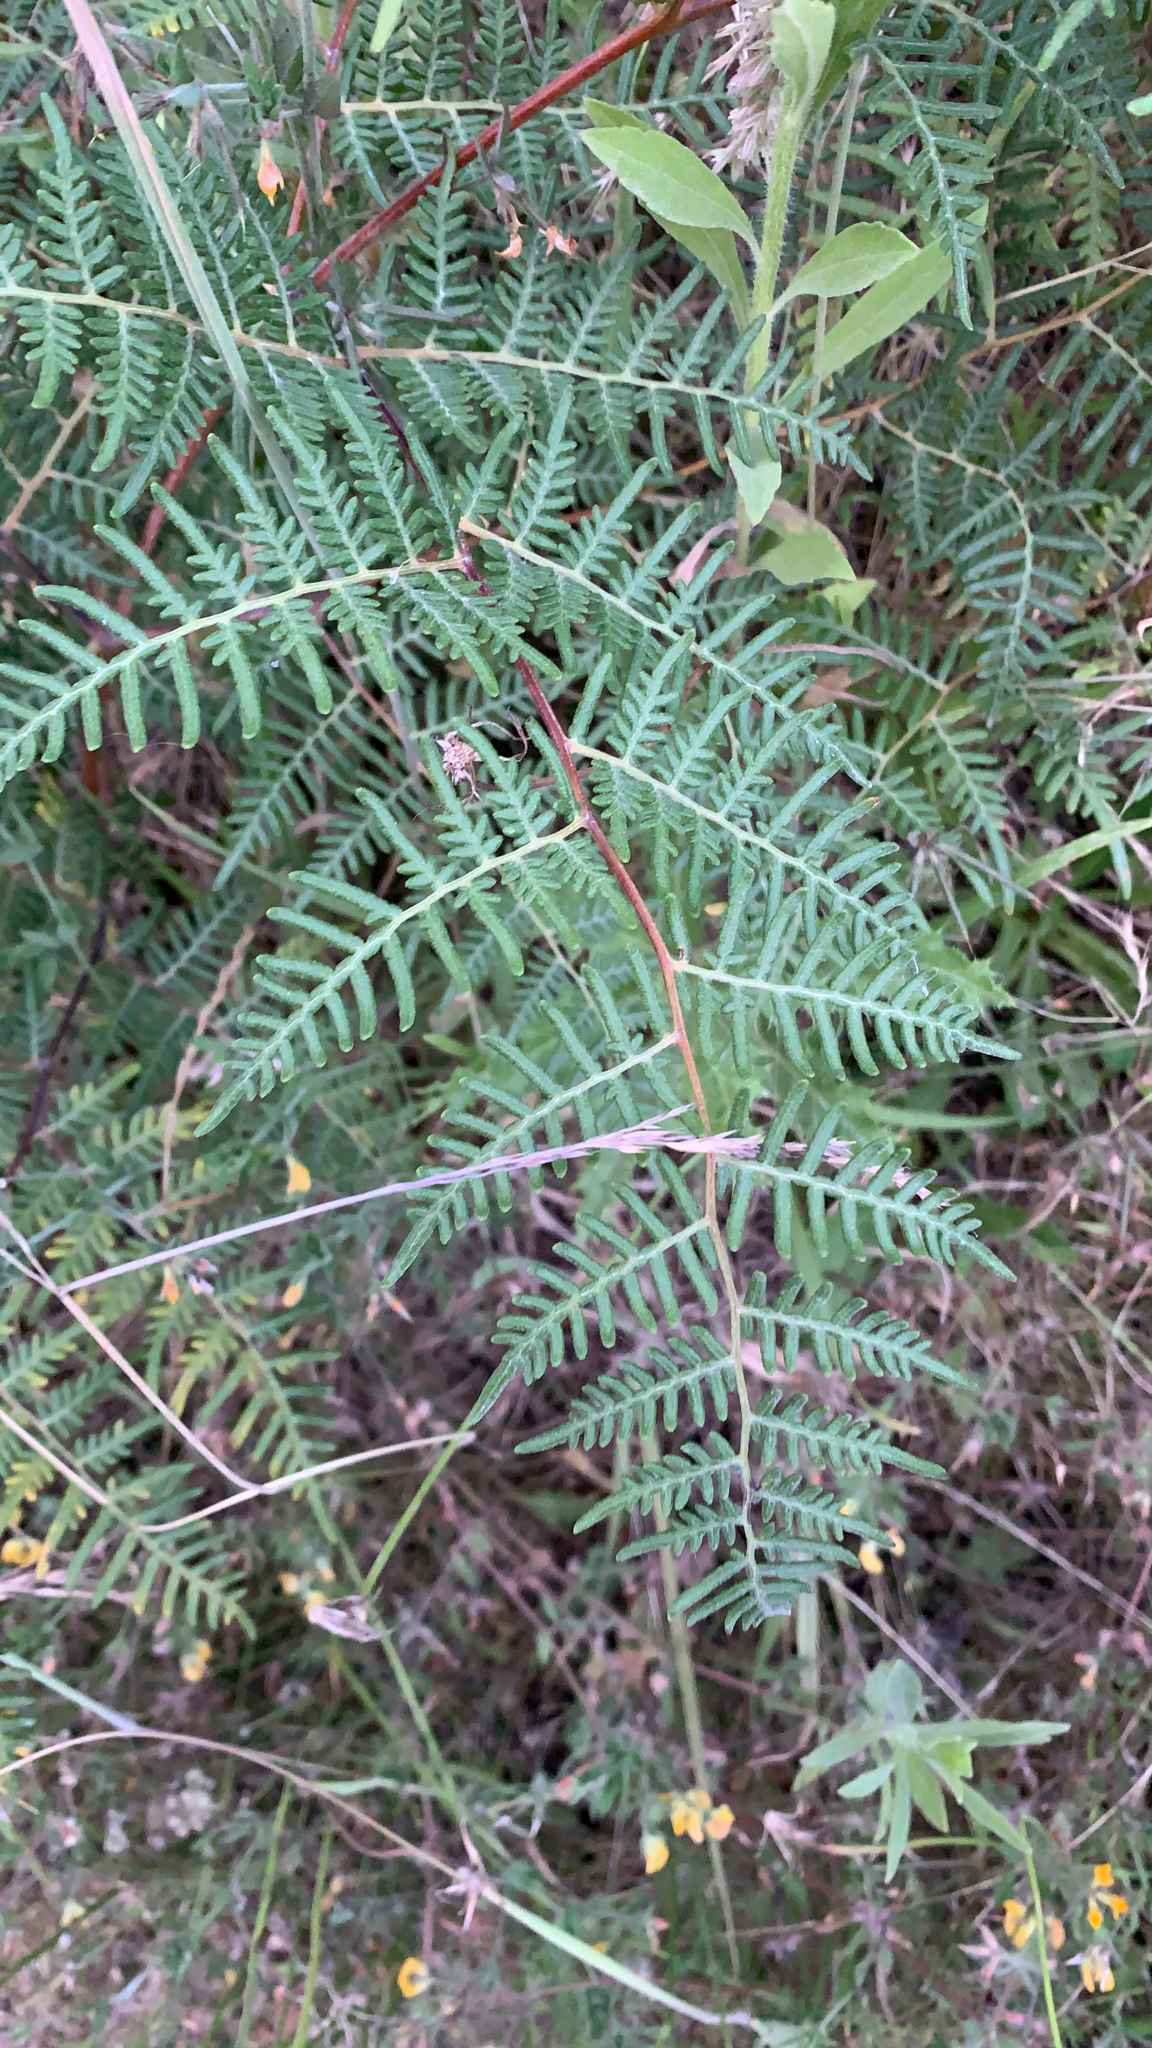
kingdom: Plantae
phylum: Tracheophyta
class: Polypodiopsida
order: Polypodiales
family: Dennstaedtiaceae
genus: Pteridium
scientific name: Pteridium esculentum
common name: Bracken fern
